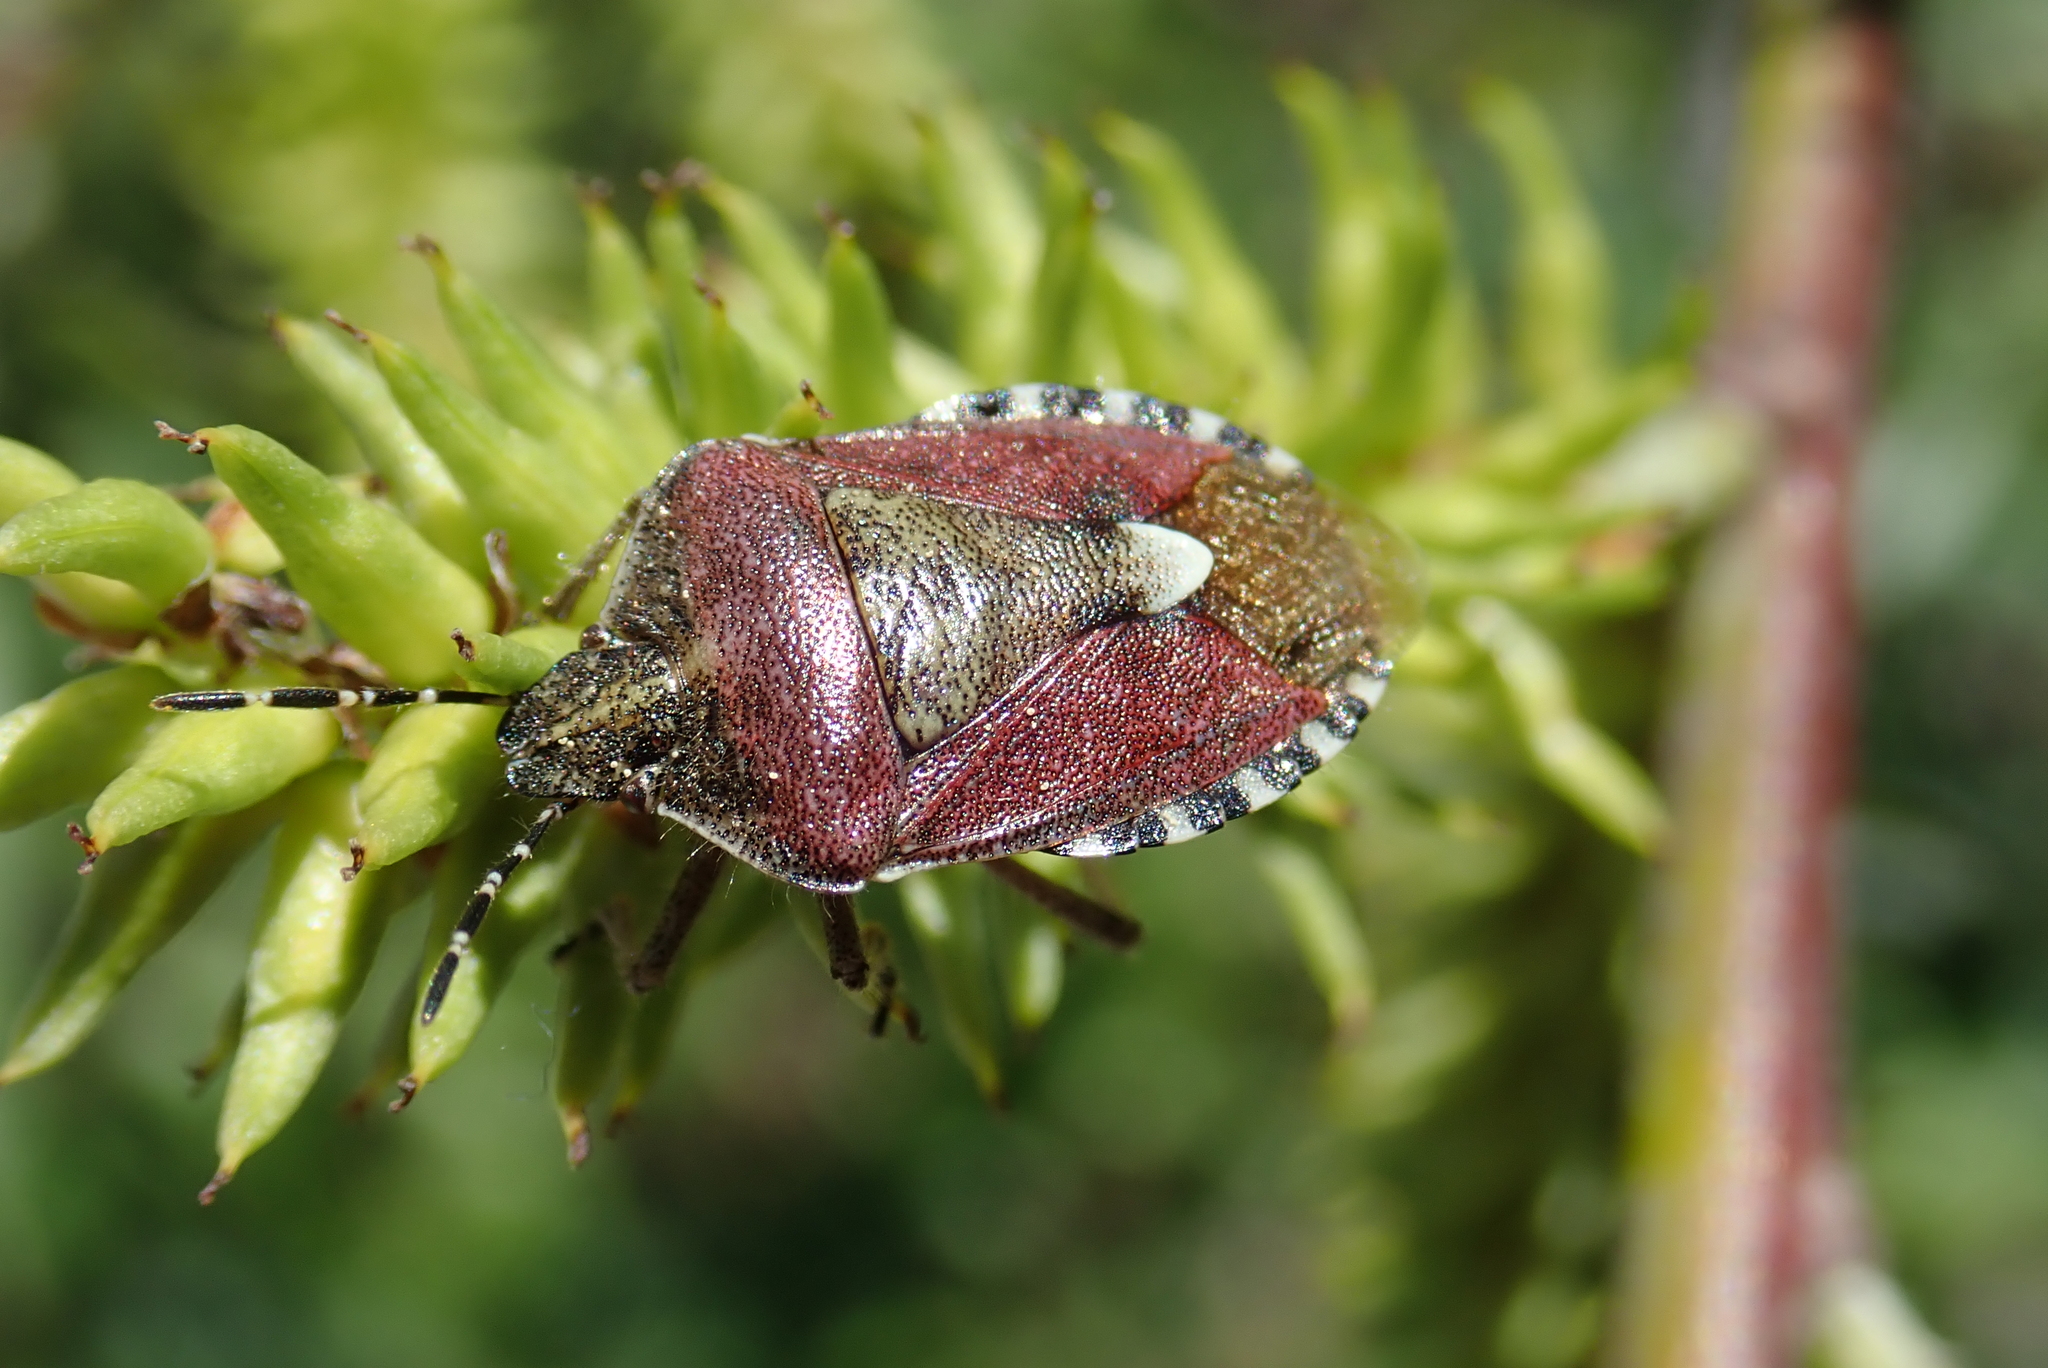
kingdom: Animalia
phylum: Arthropoda
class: Insecta
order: Hemiptera
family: Pentatomidae
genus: Dolycoris
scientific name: Dolycoris baccarum
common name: Sloe bug
